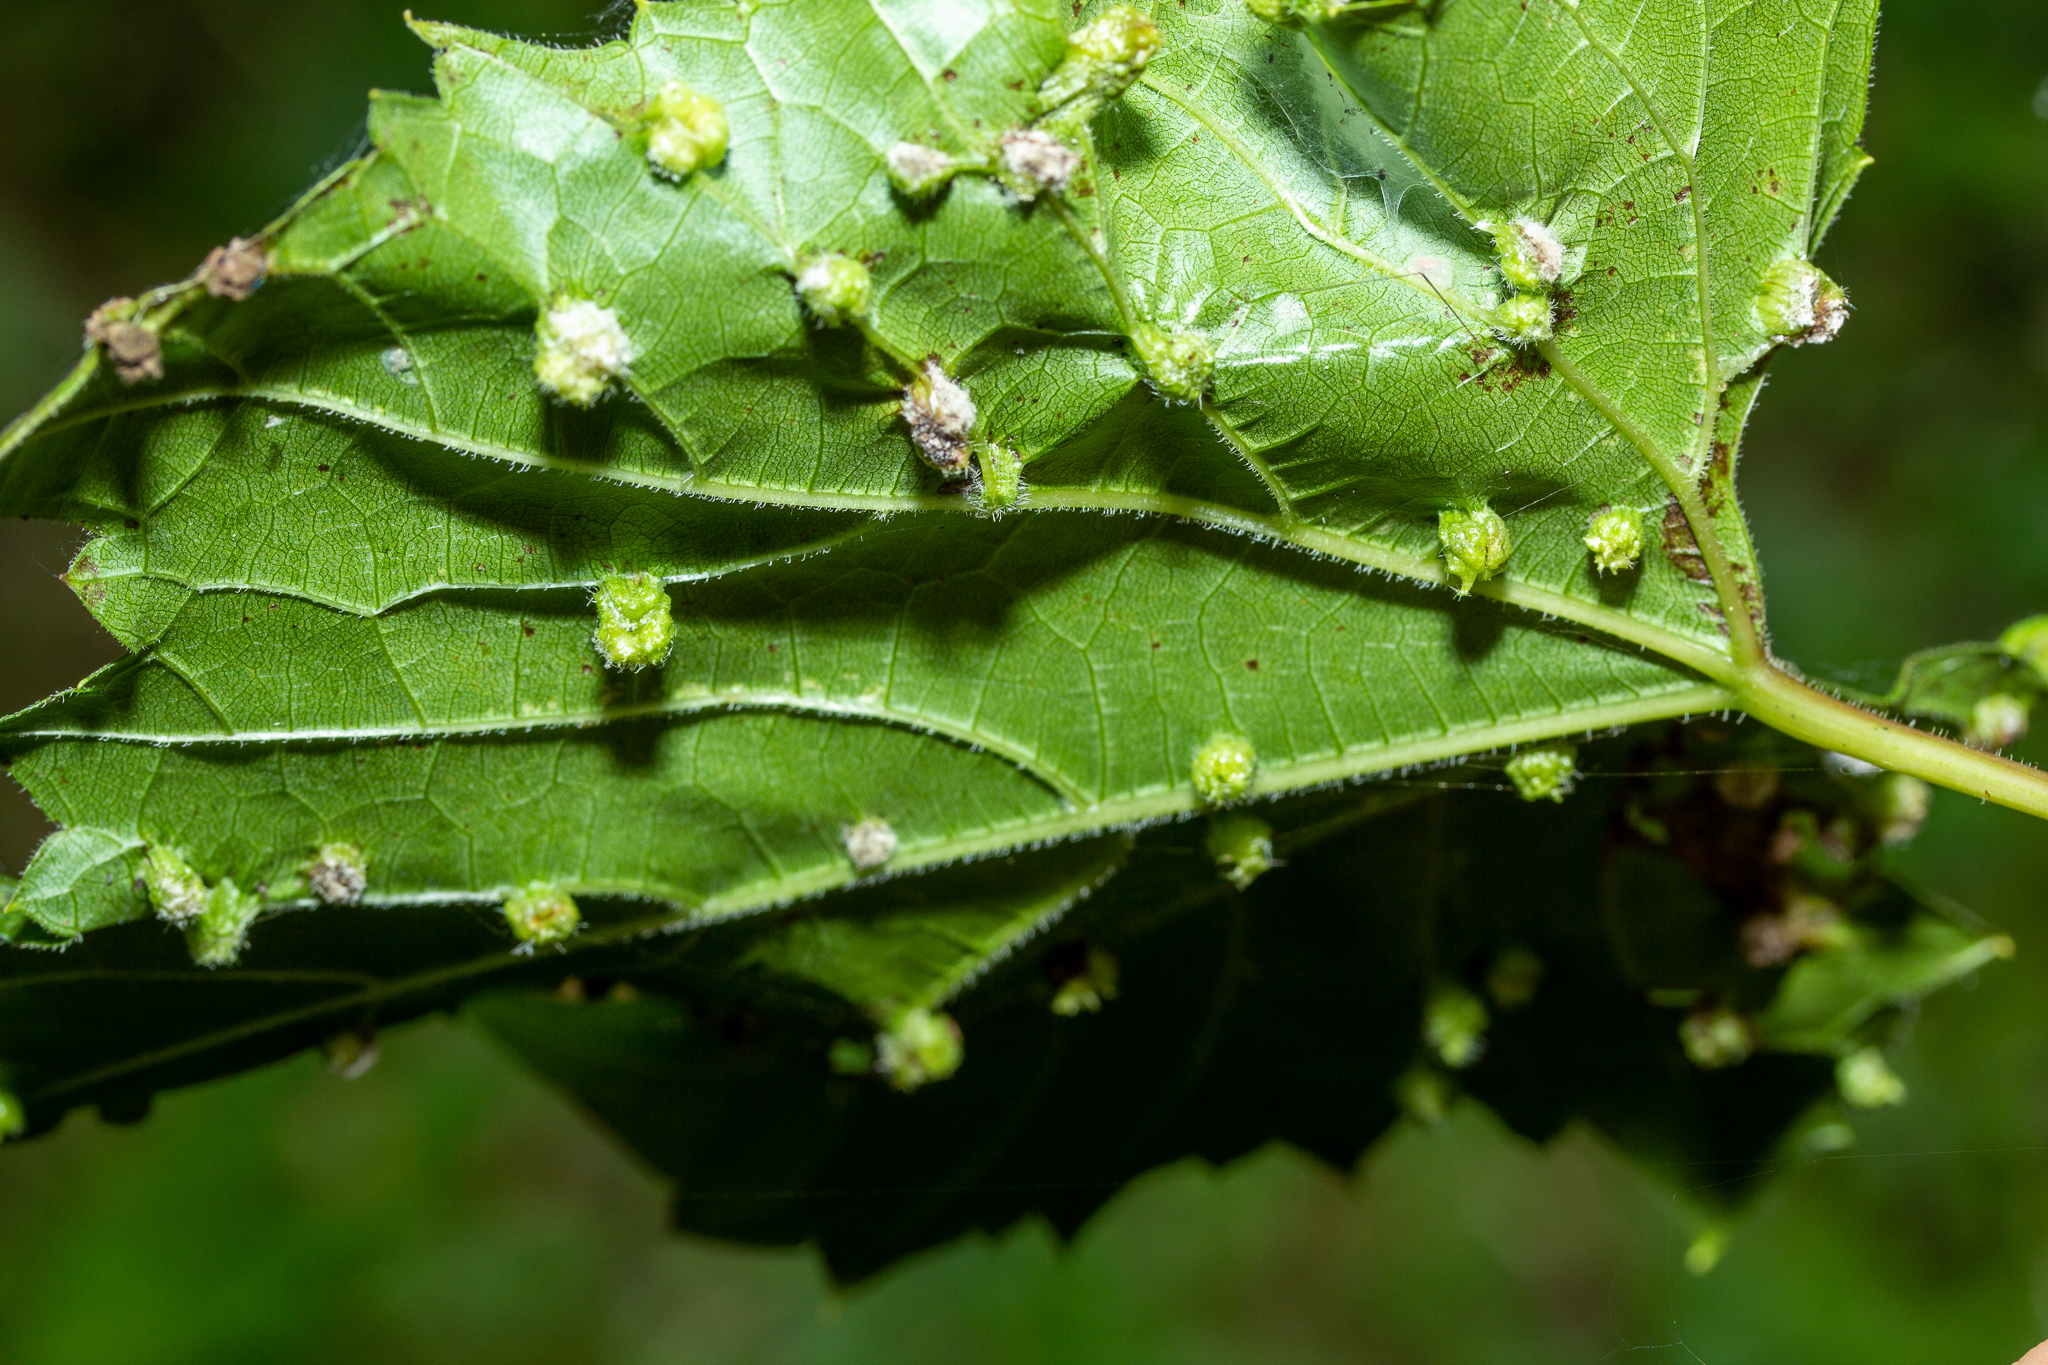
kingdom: Animalia
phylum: Arthropoda
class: Insecta
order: Hemiptera
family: Phylloxeridae
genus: Daktulosphaira
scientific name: Daktulosphaira vitifoliae
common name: Grape phylloxera
